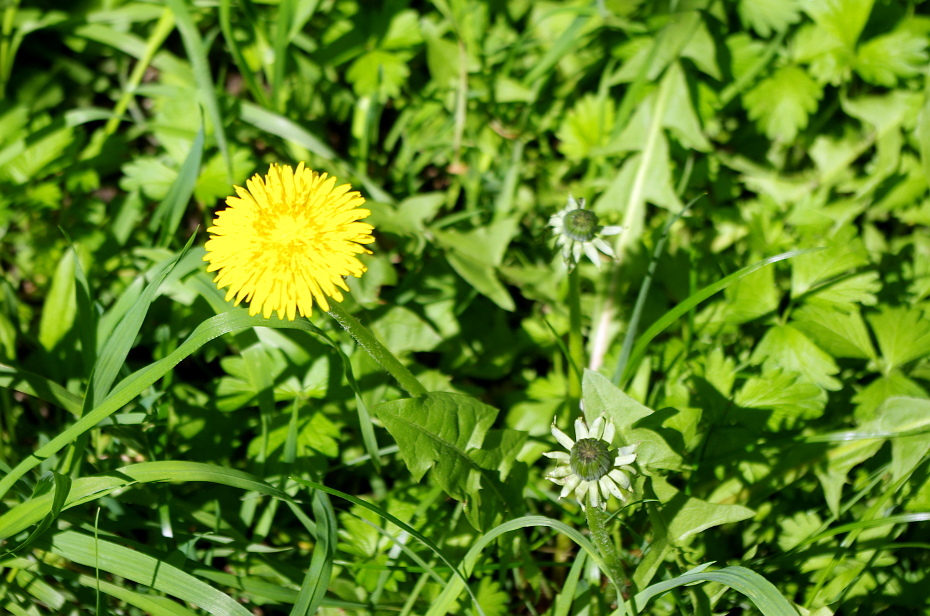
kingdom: Plantae
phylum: Tracheophyta
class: Magnoliopsida
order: Asterales
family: Asteraceae
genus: Taraxacum
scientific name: Taraxacum officinale
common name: Common dandelion
